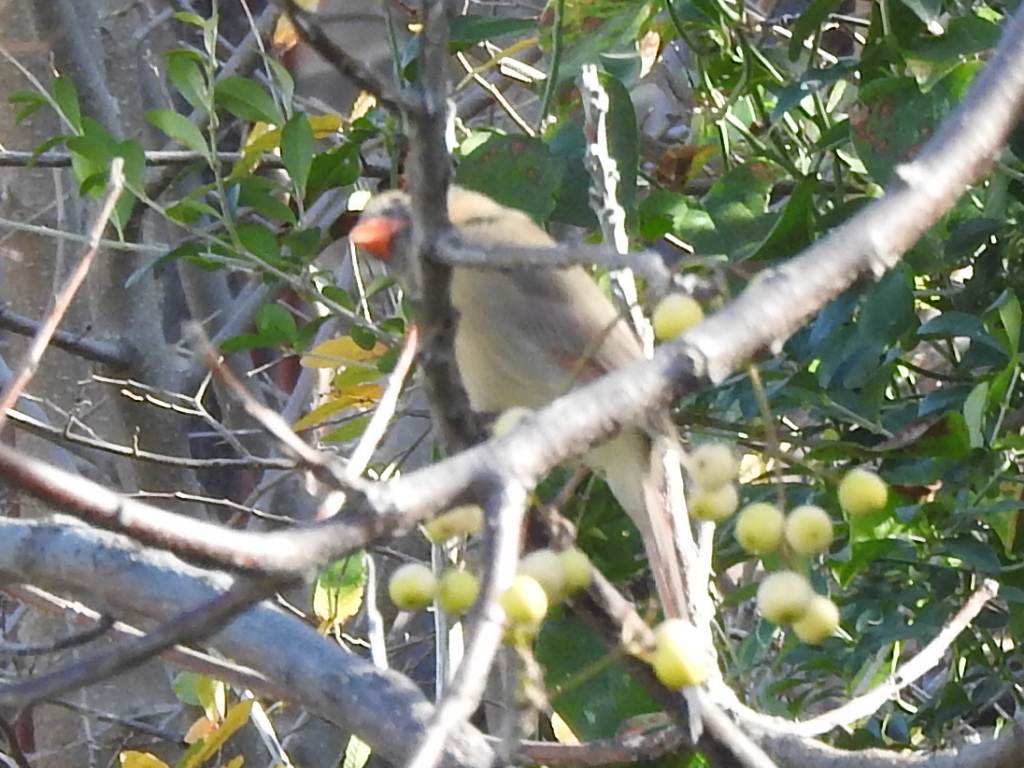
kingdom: Animalia
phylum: Chordata
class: Aves
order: Passeriformes
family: Cardinalidae
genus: Cardinalis
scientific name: Cardinalis cardinalis
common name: Northern cardinal
